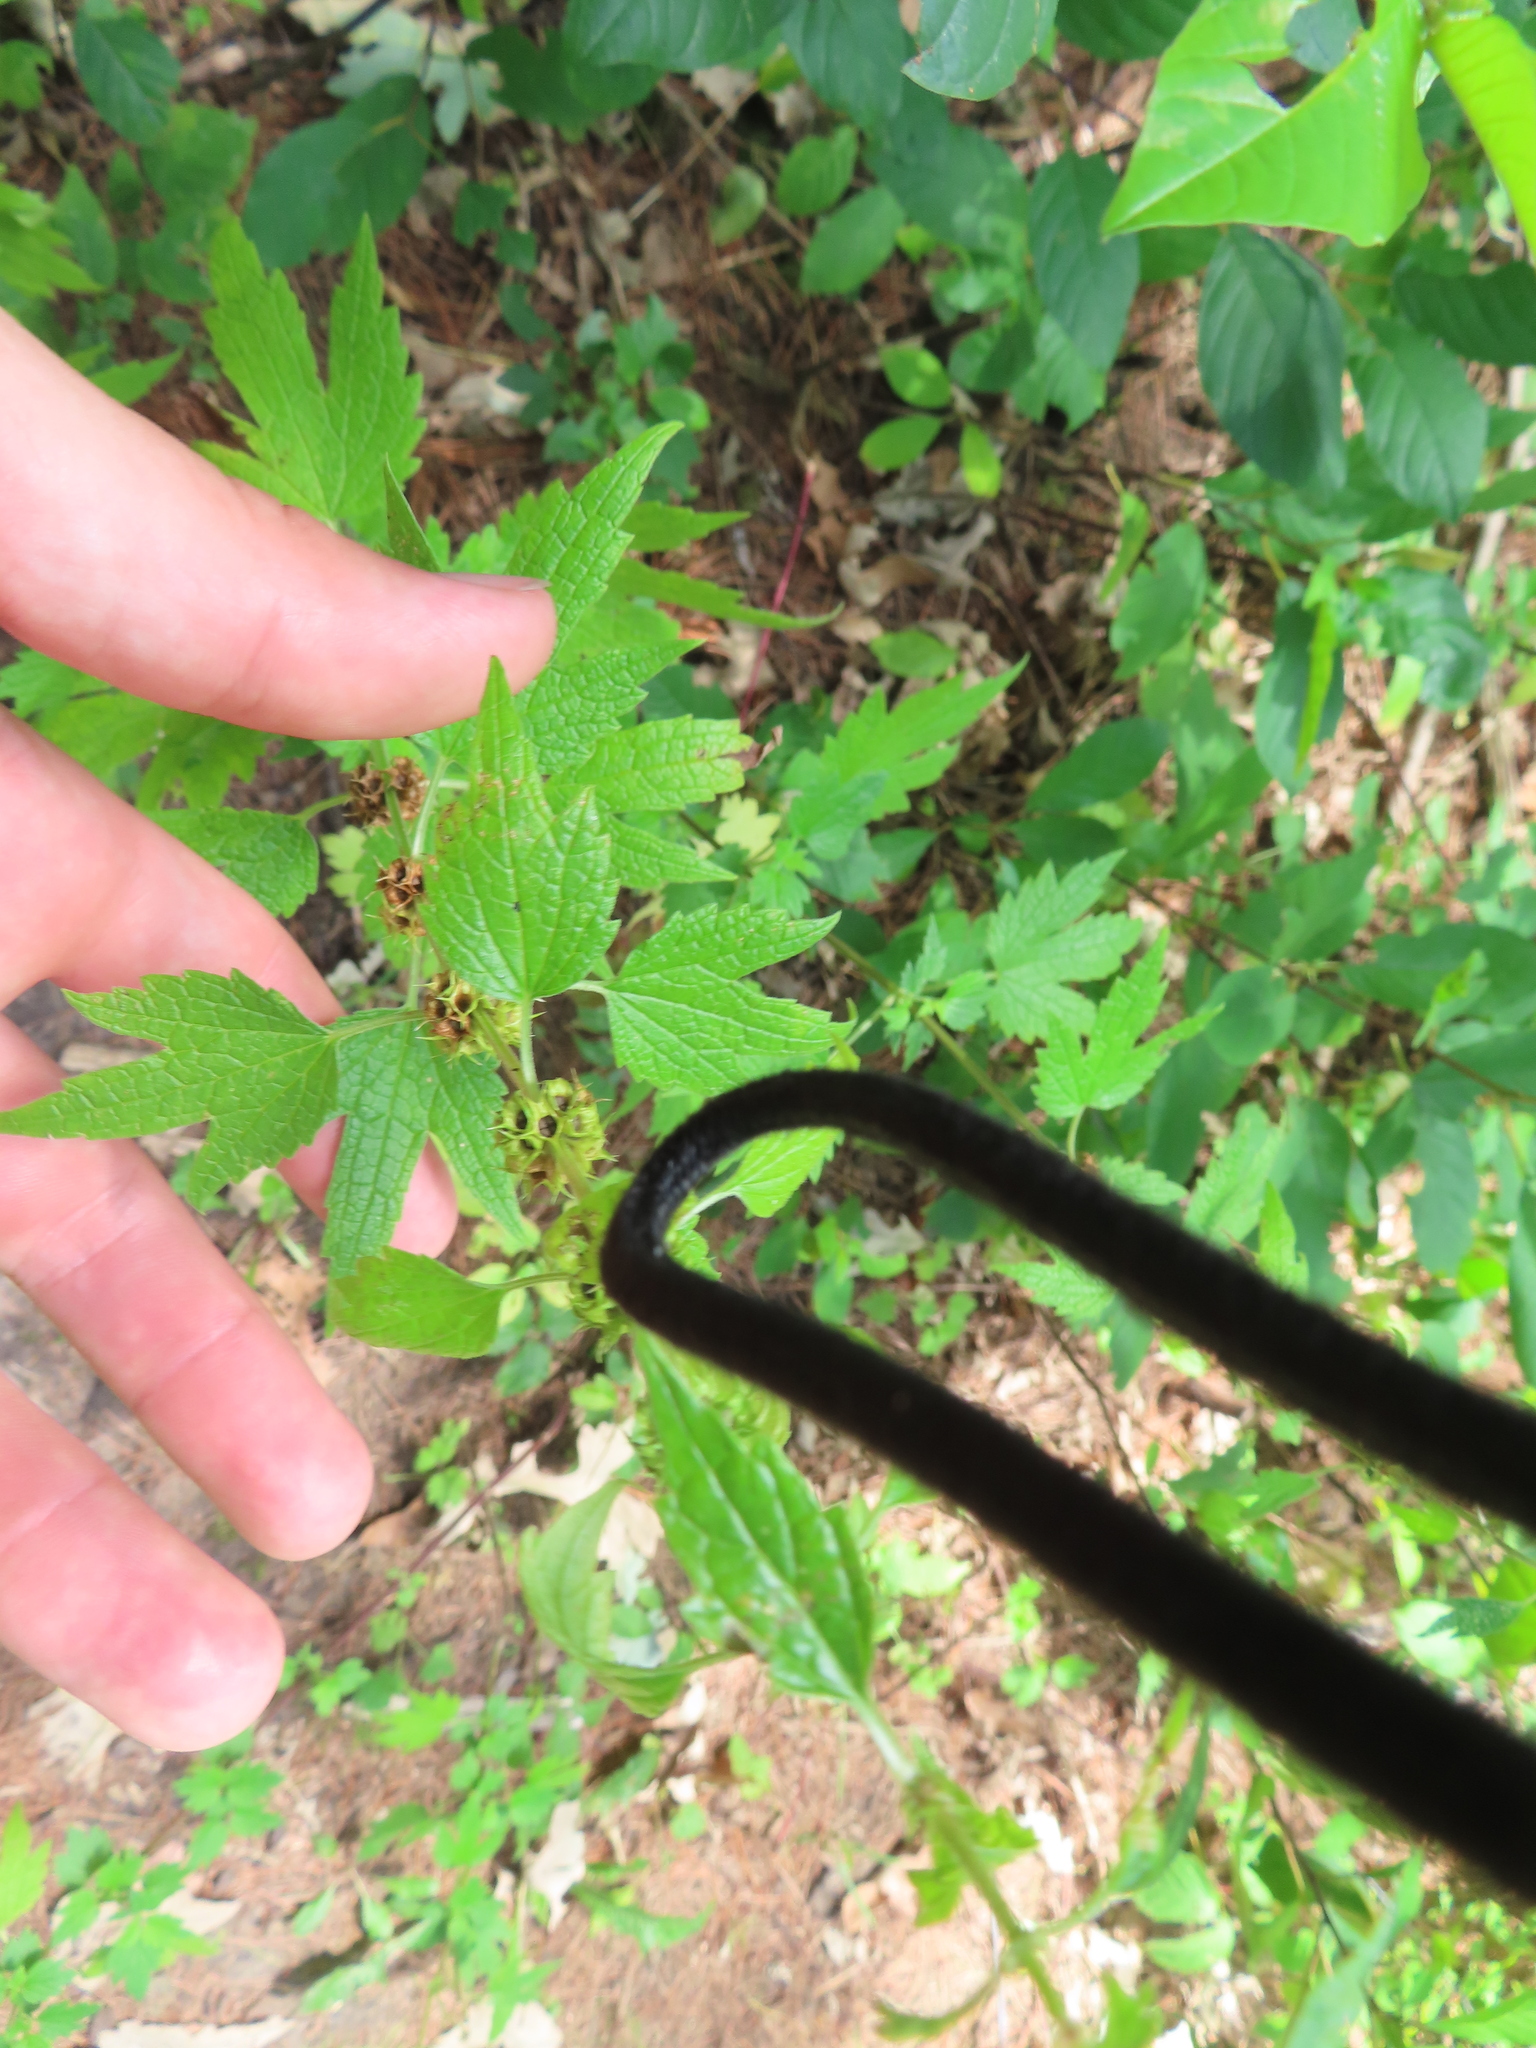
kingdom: Plantae
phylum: Tracheophyta
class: Magnoliopsida
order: Lamiales
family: Lamiaceae
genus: Leonurus
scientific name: Leonurus cardiaca
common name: Motherwort
